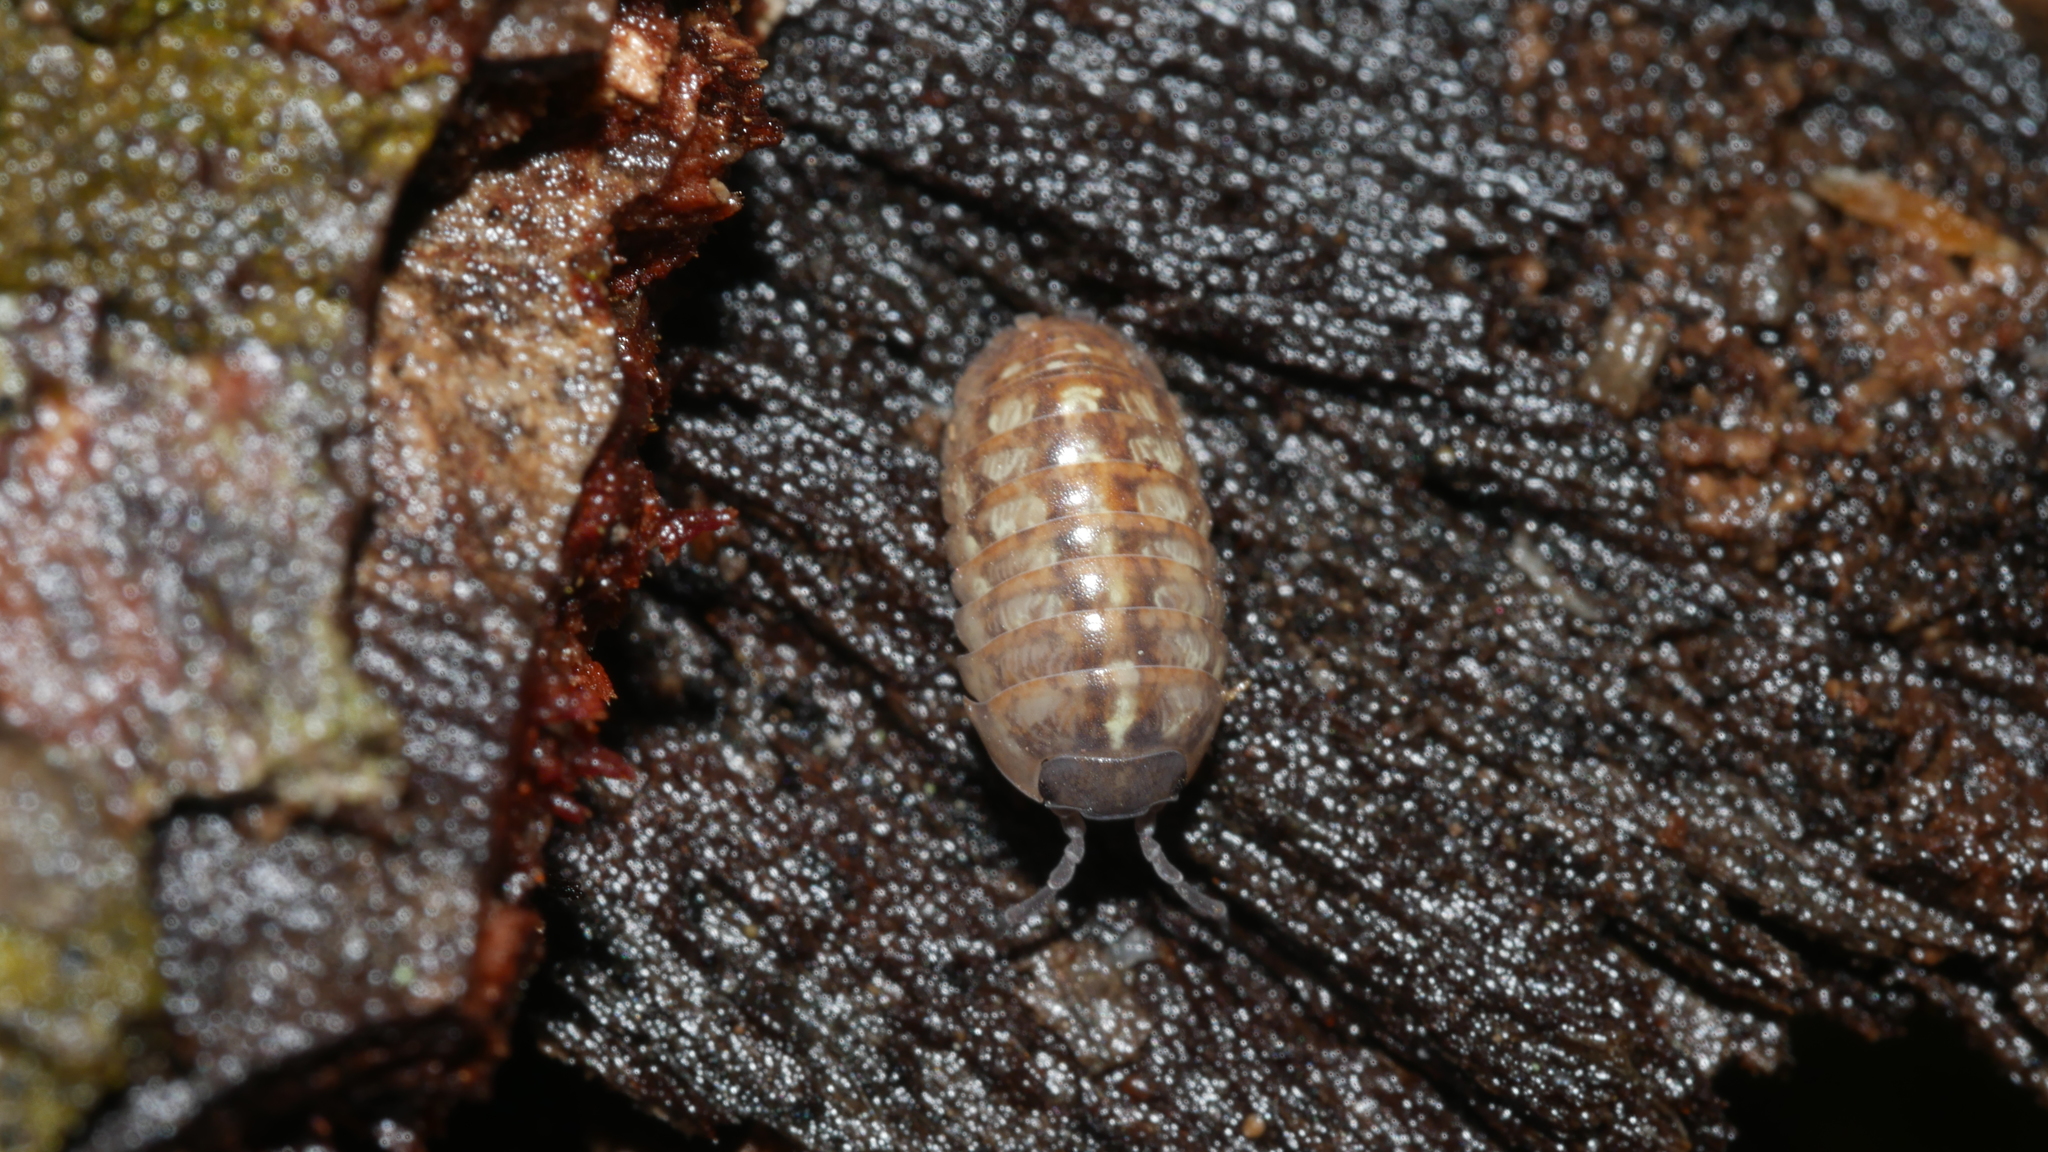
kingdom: Animalia
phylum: Arthropoda
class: Malacostraca
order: Isopoda
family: Armadillidiidae
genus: Armadillidium
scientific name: Armadillidium vulgare
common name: Common pill woodlouse
